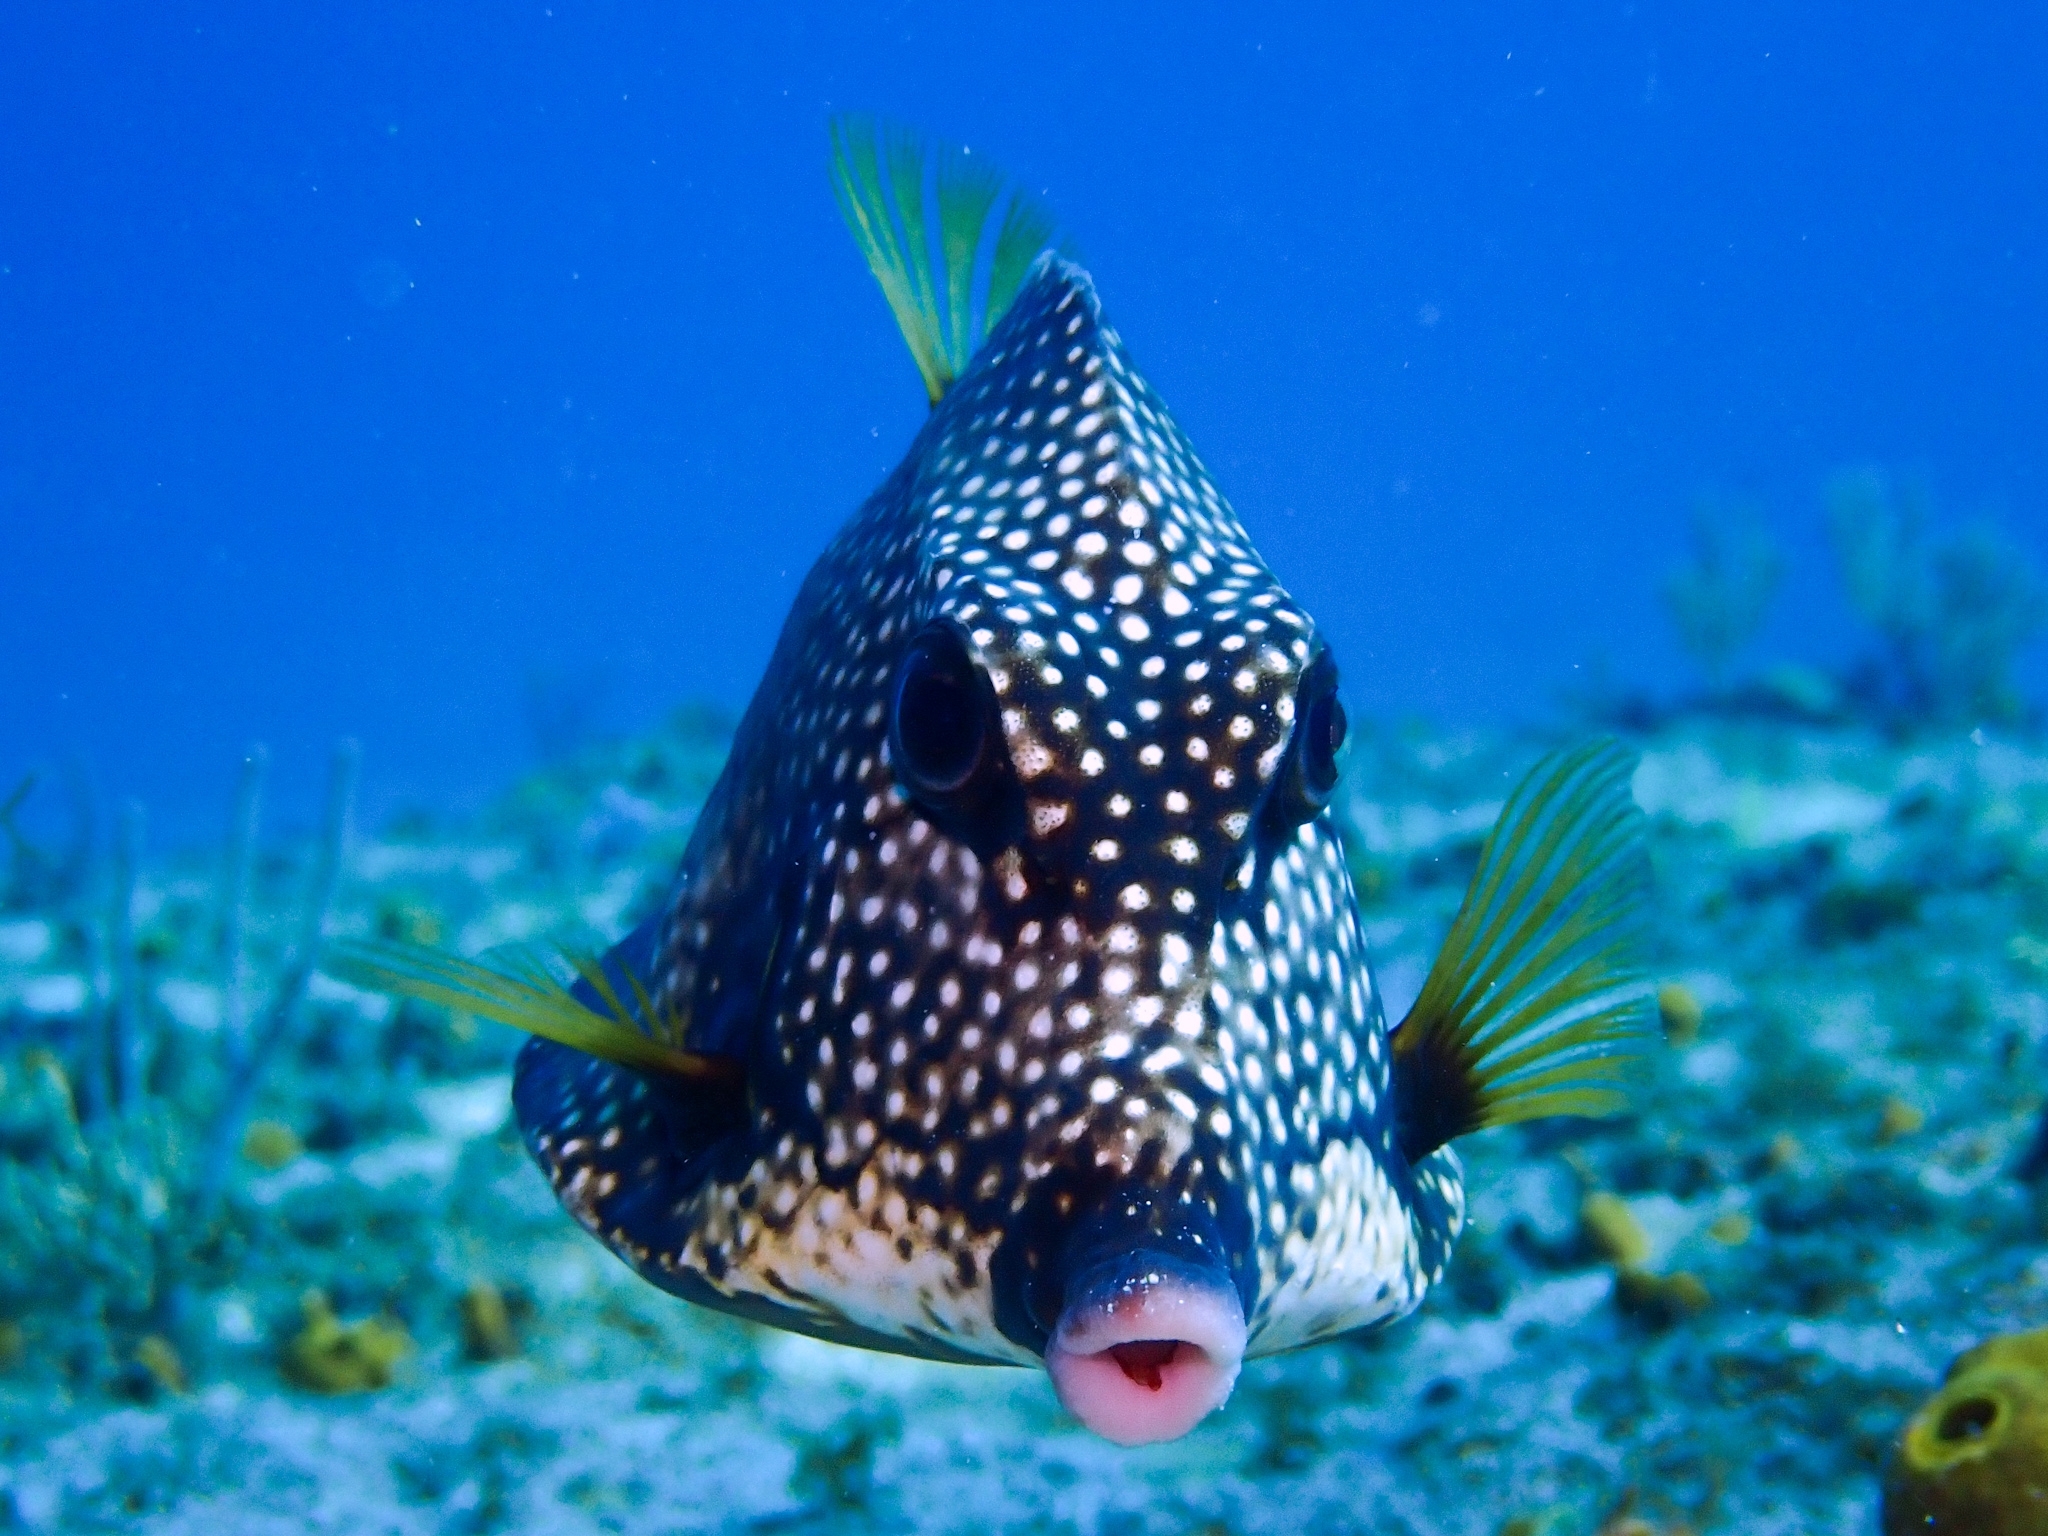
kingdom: Animalia
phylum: Chordata
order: Tetraodontiformes
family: Ostraciidae
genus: Lactophrys
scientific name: Lactophrys triqueter
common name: Smooth trunkfish
